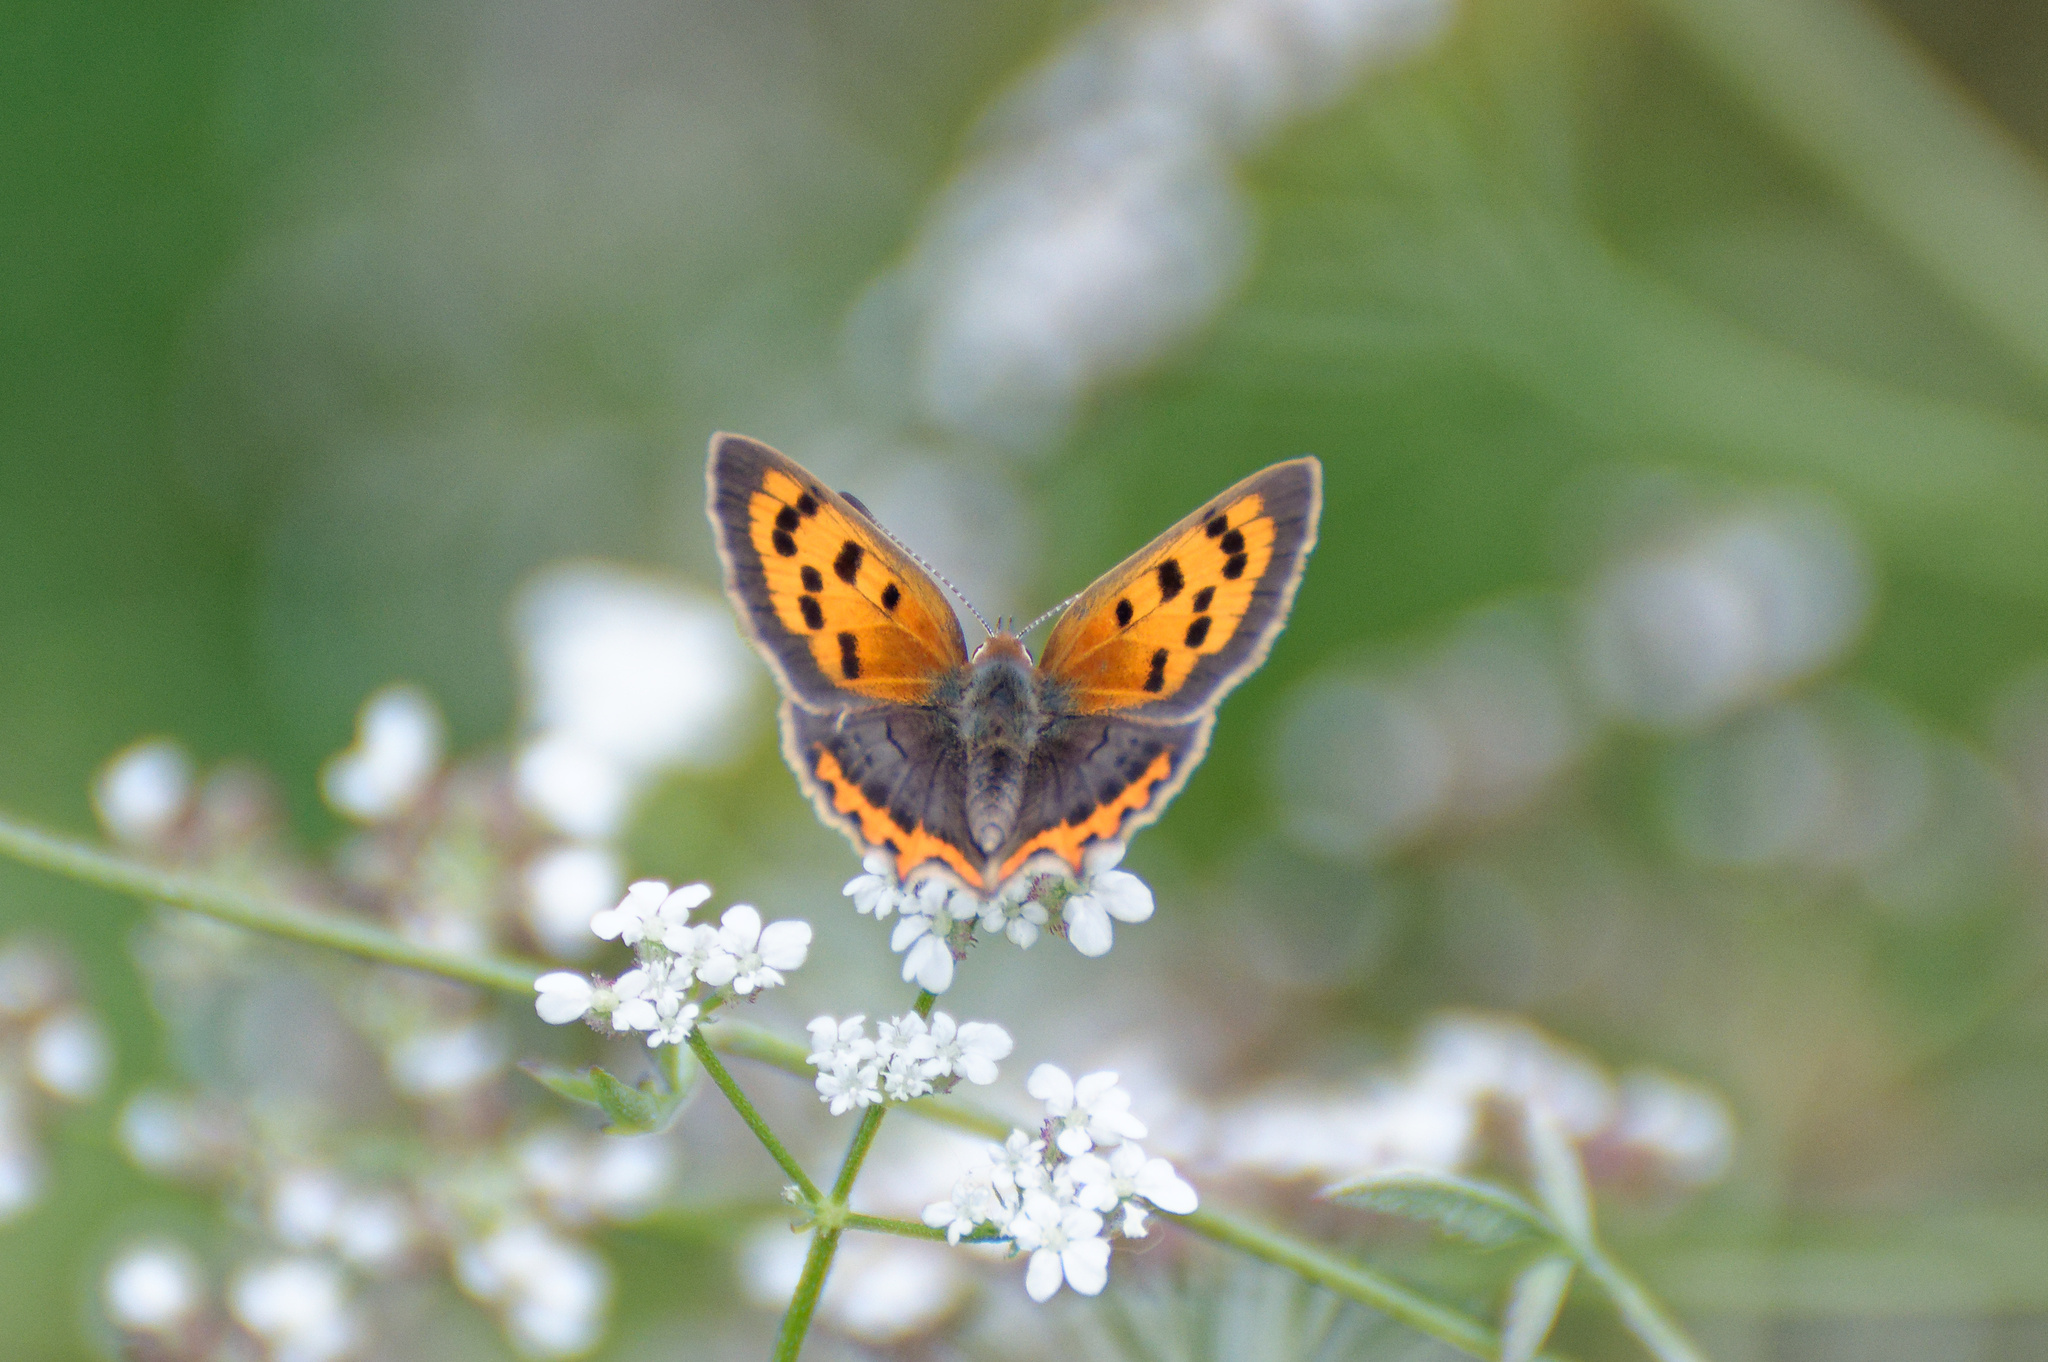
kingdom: Animalia
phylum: Arthropoda
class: Insecta
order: Lepidoptera
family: Lycaenidae
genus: Lycaena
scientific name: Lycaena phlaeas
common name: Small copper
